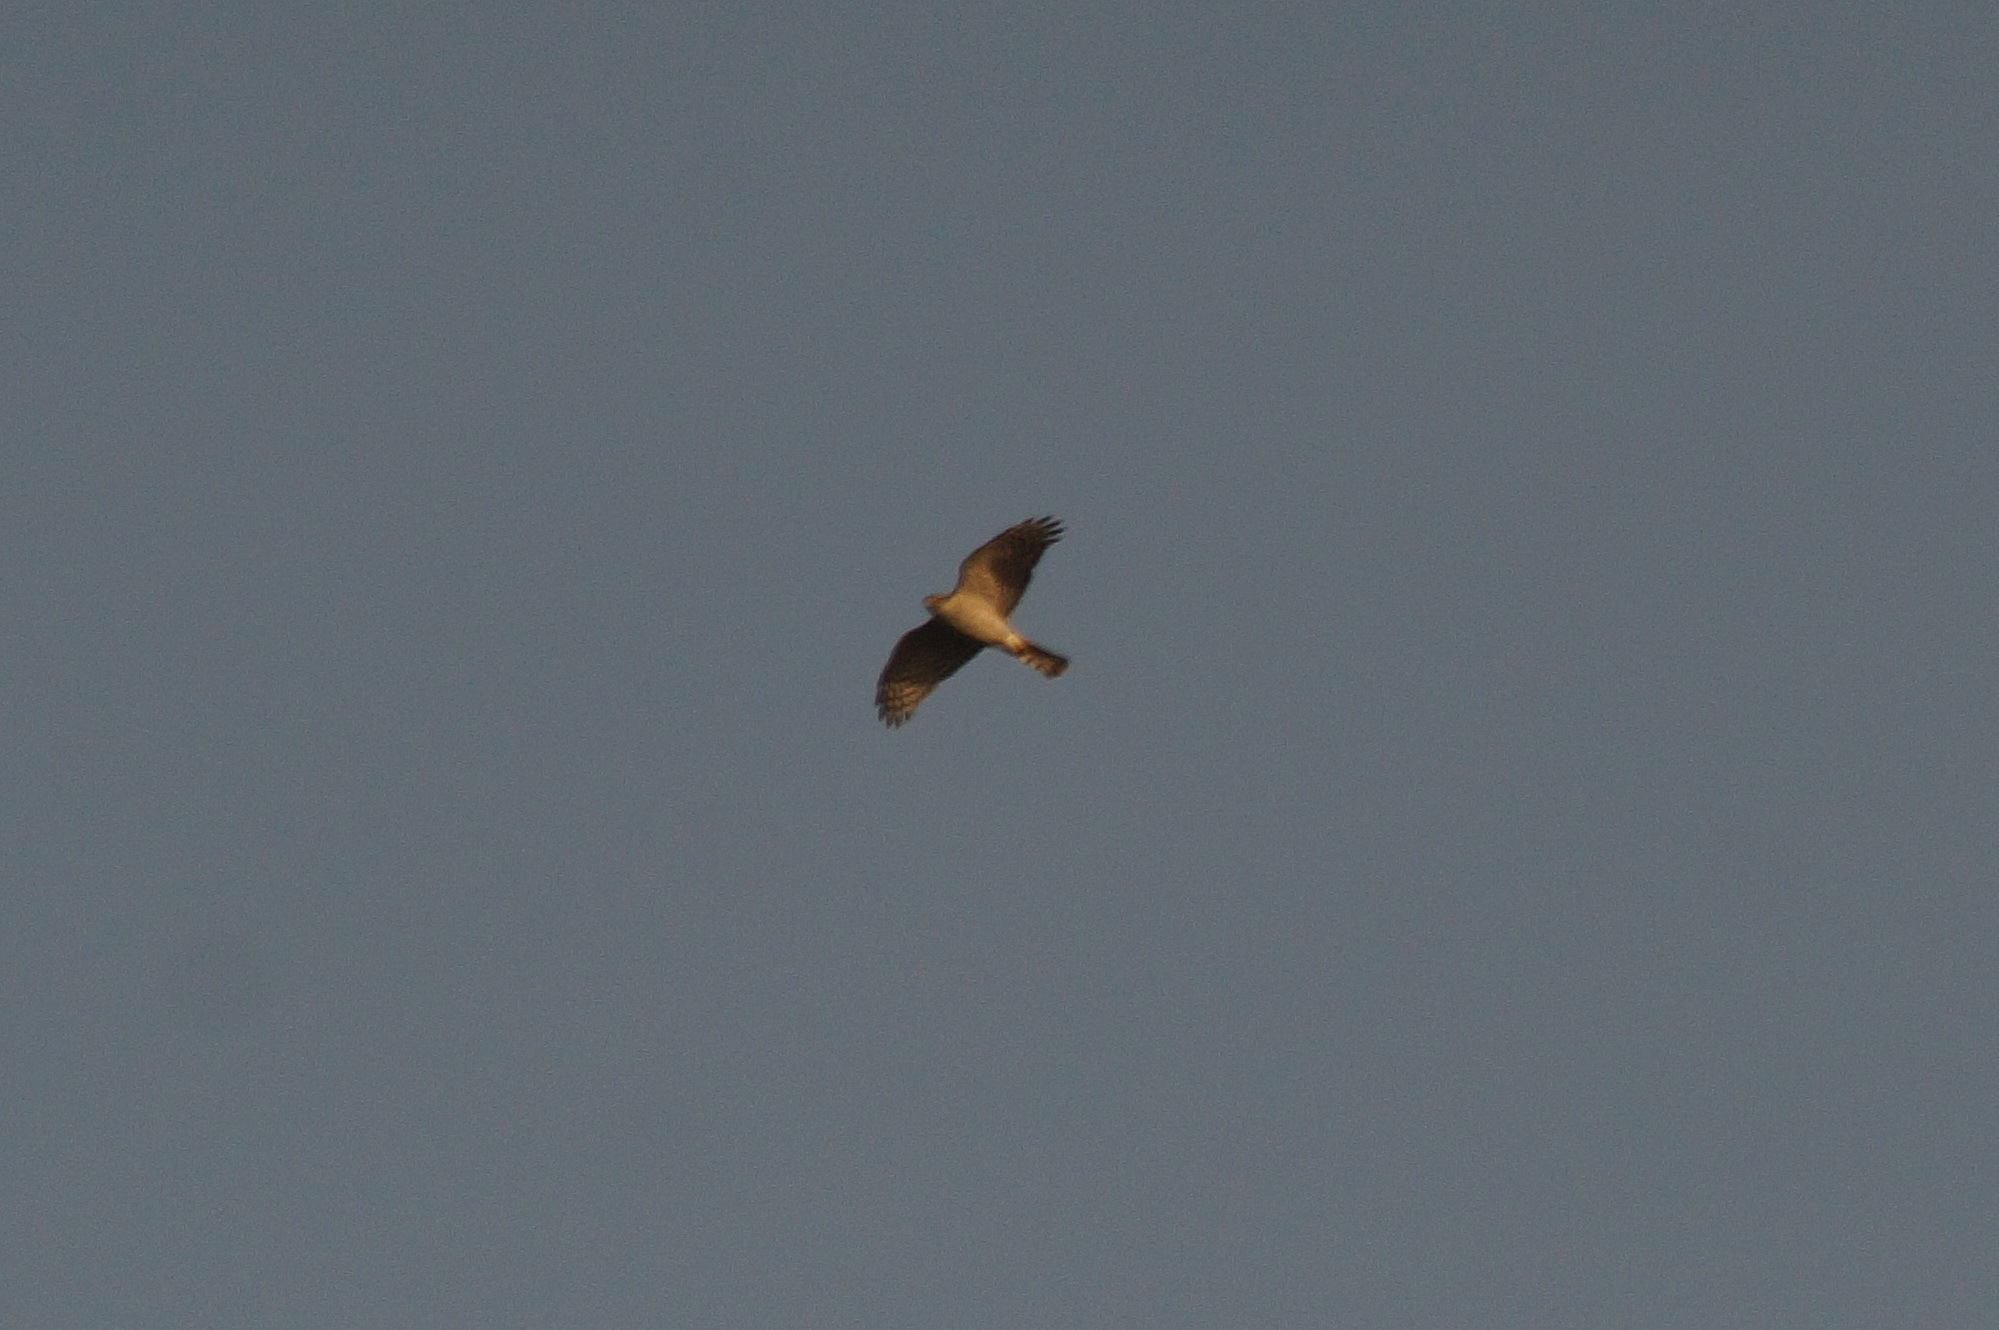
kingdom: Animalia
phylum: Chordata
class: Aves
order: Accipitriformes
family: Accipitridae
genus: Accipiter
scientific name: Accipiter nisus
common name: Eurasian sparrowhawk
